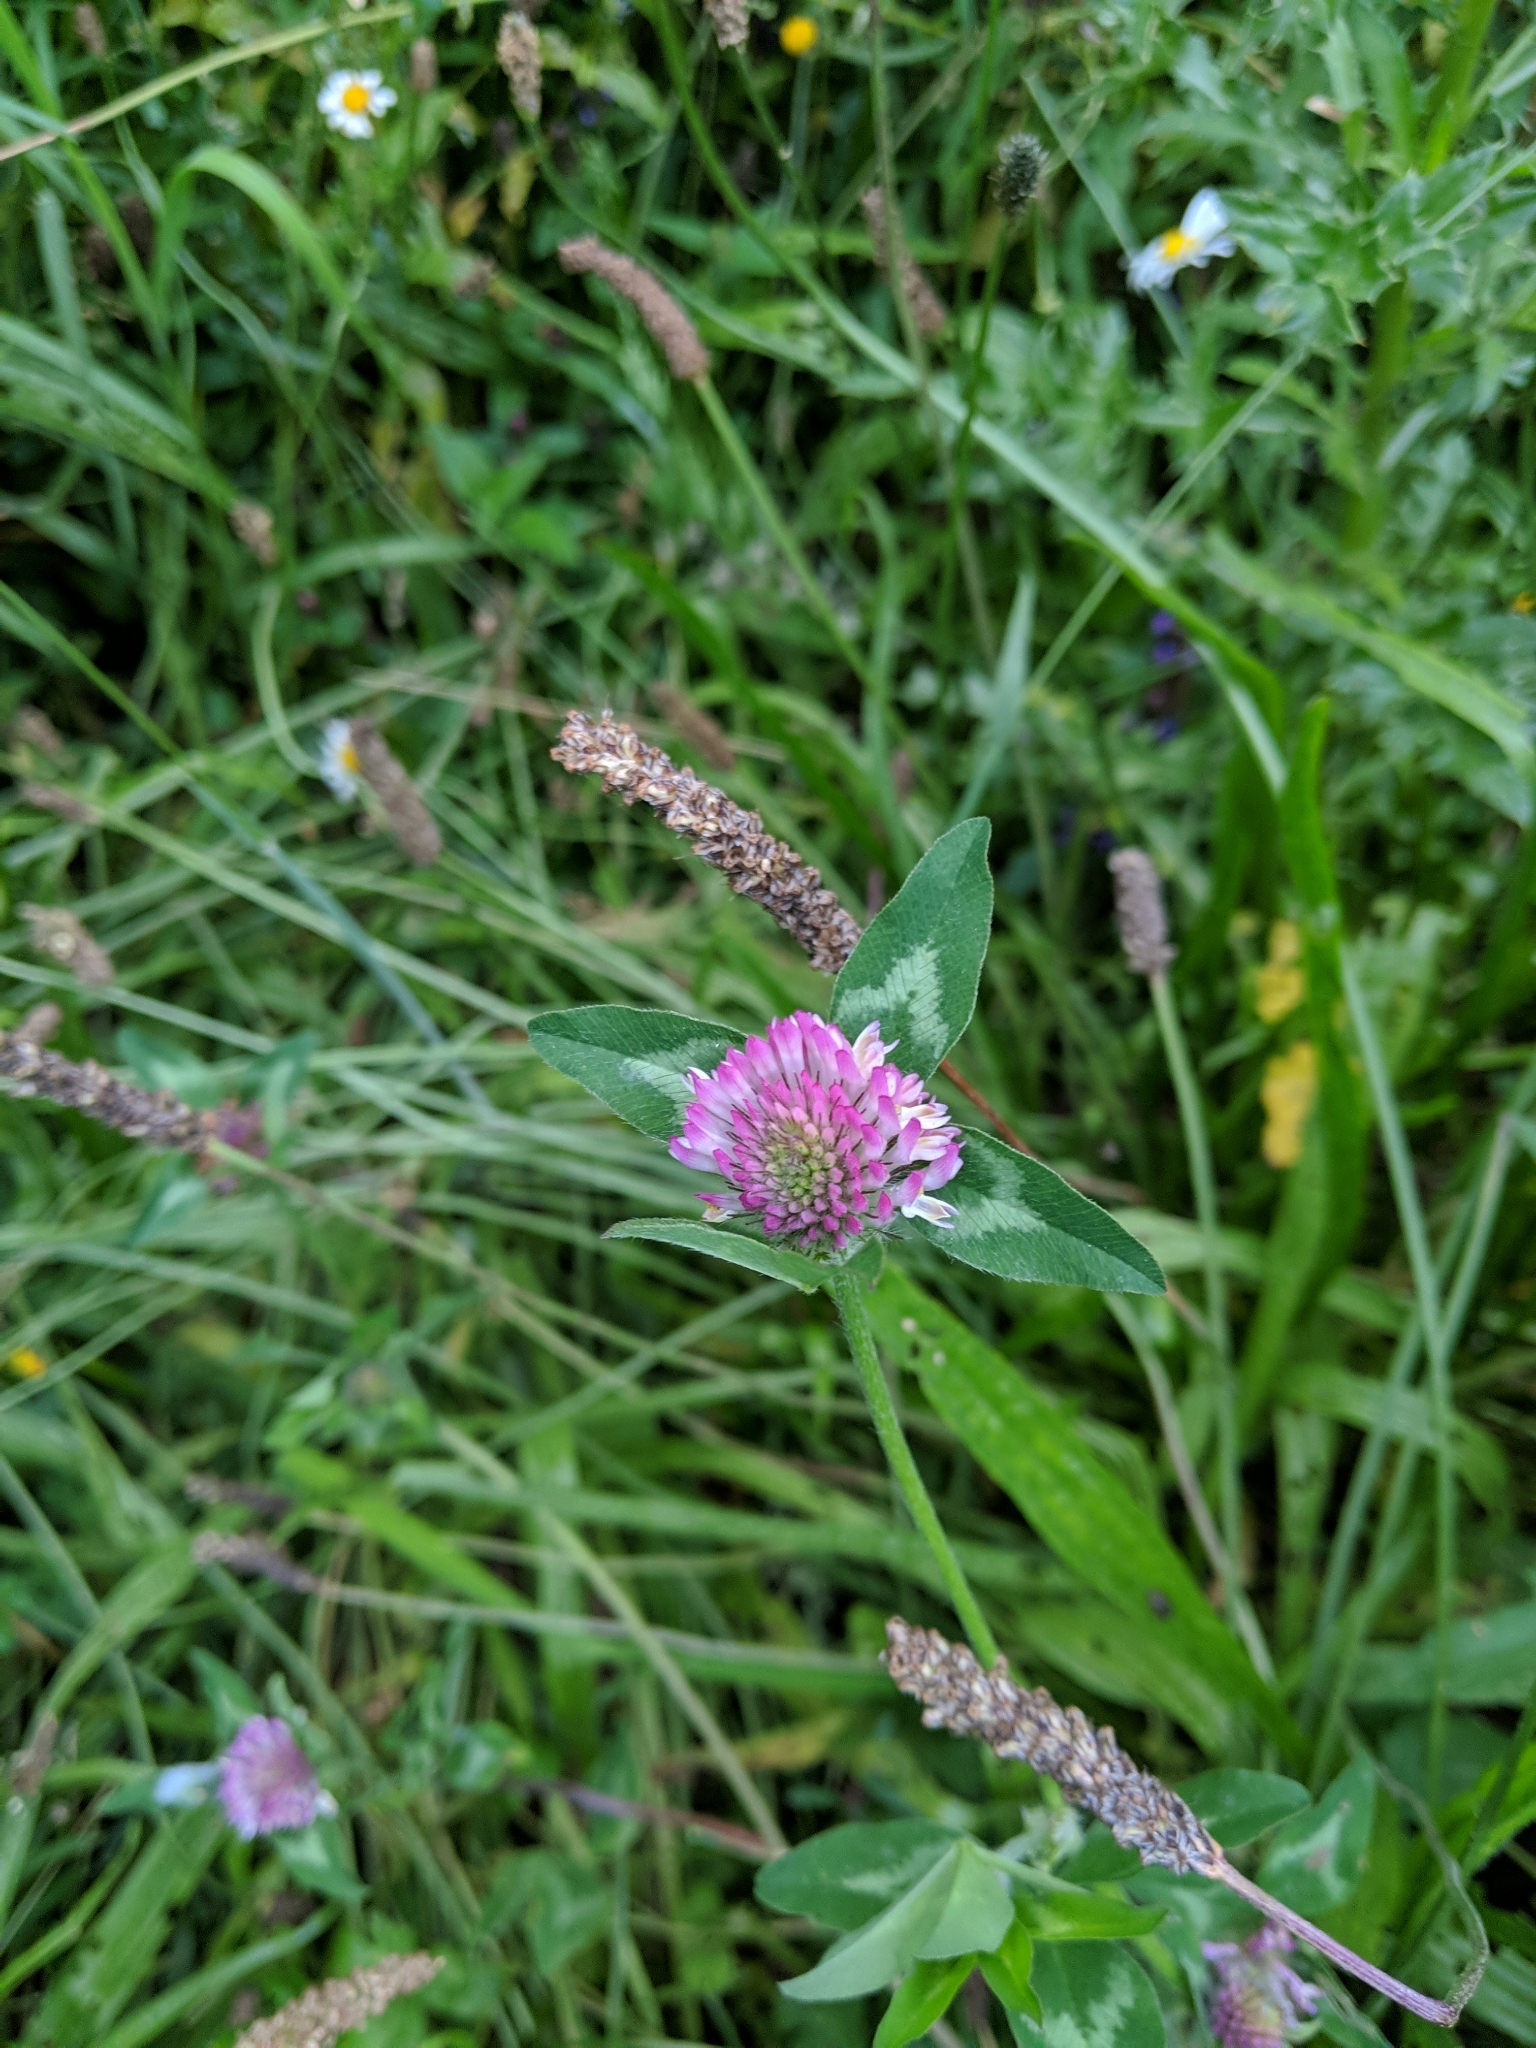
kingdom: Plantae
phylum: Tracheophyta
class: Magnoliopsida
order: Fabales
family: Fabaceae
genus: Trifolium
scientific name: Trifolium pratense
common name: Red clover
